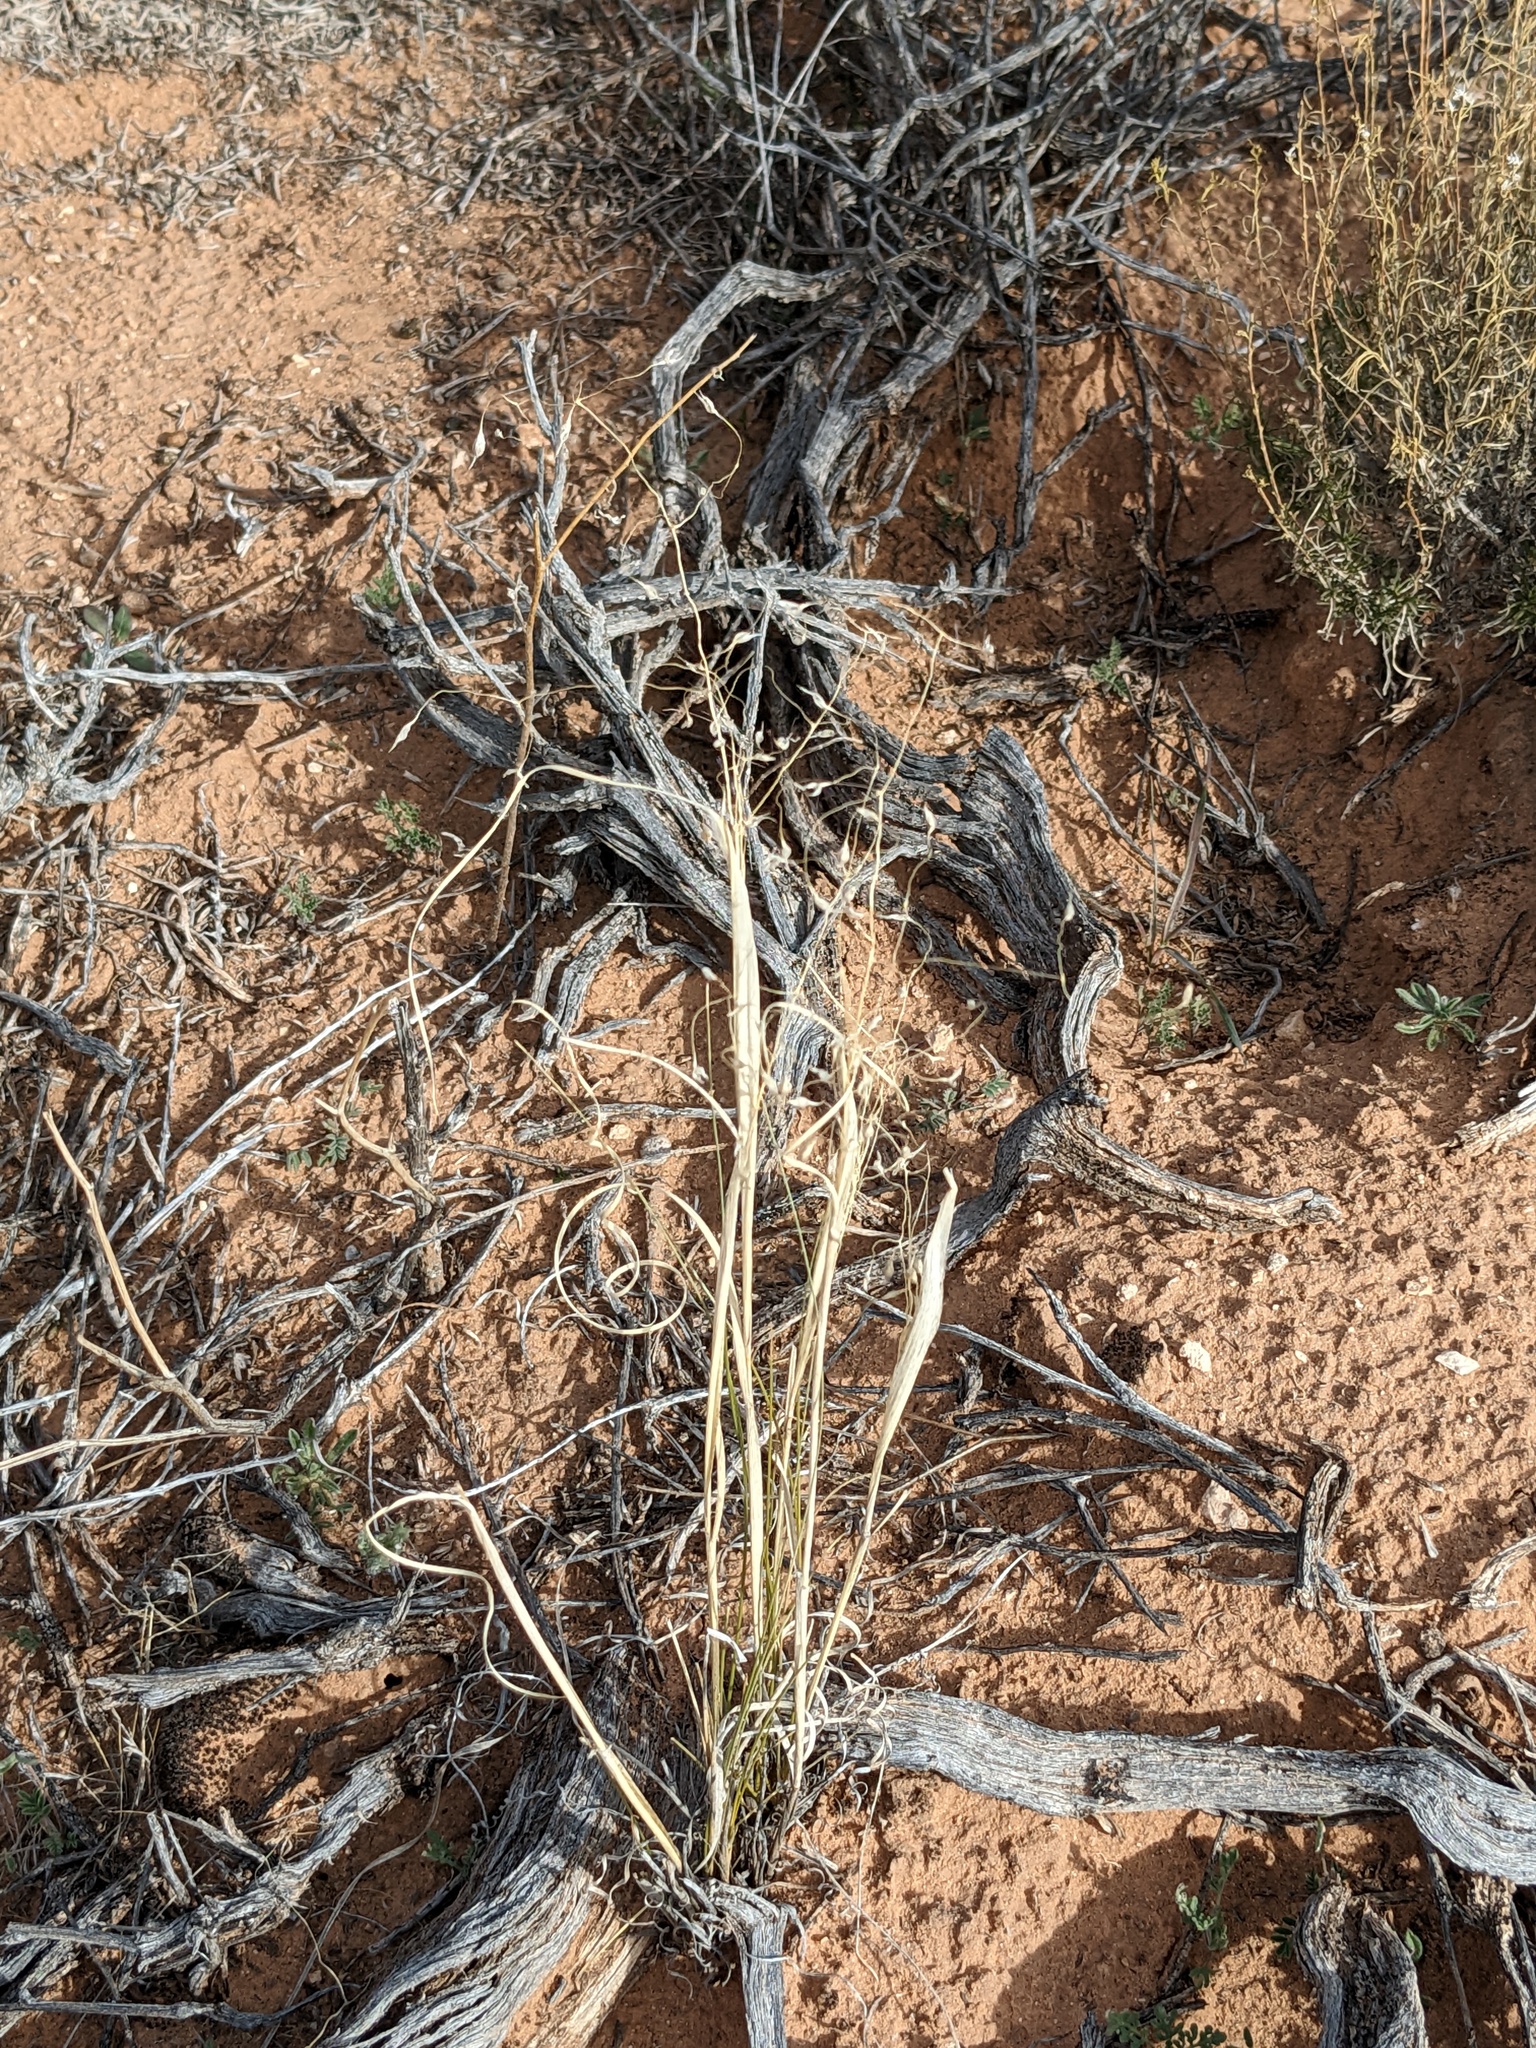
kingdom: Plantae
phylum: Tracheophyta
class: Liliopsida
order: Poales
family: Poaceae
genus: Eriocoma
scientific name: Eriocoma hymenoides
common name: Indian mountain ricegrass
